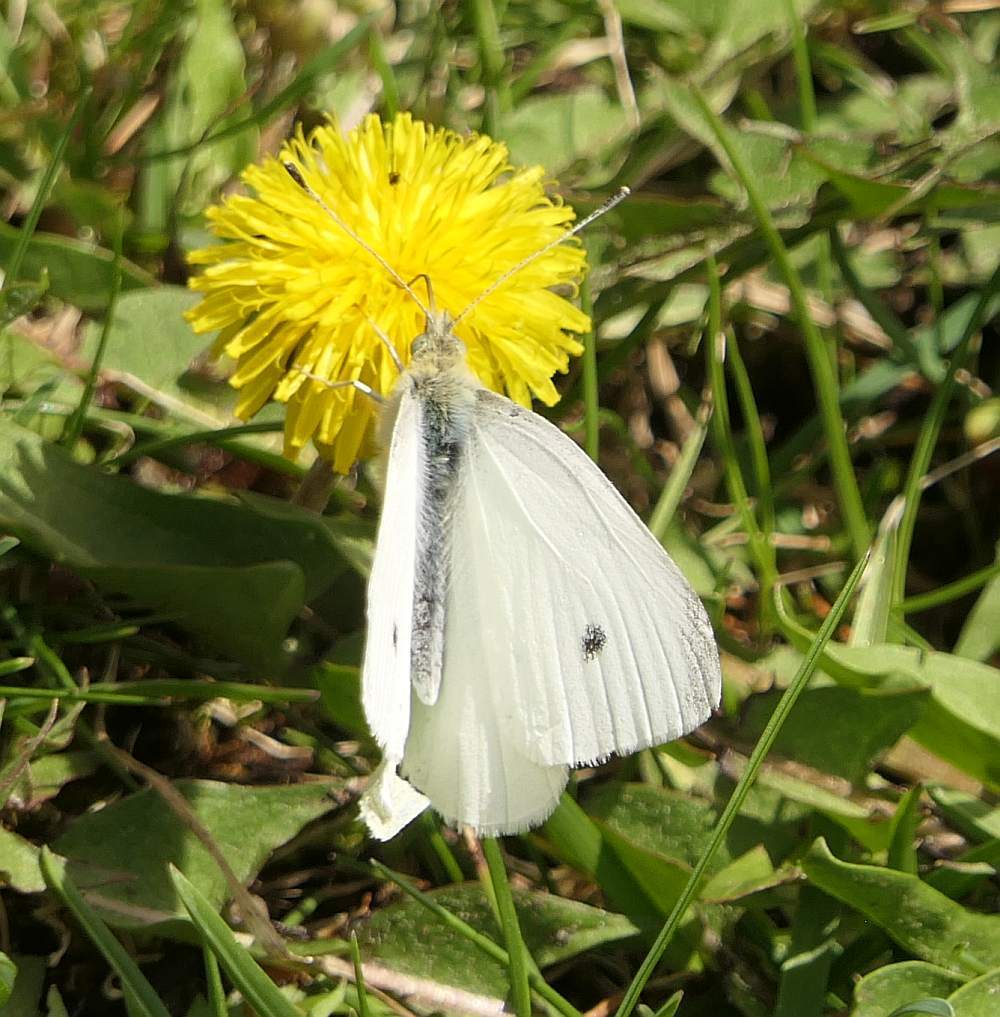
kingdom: Animalia
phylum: Arthropoda
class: Insecta
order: Lepidoptera
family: Pieridae
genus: Pieris
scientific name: Pieris rapae
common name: Small white
